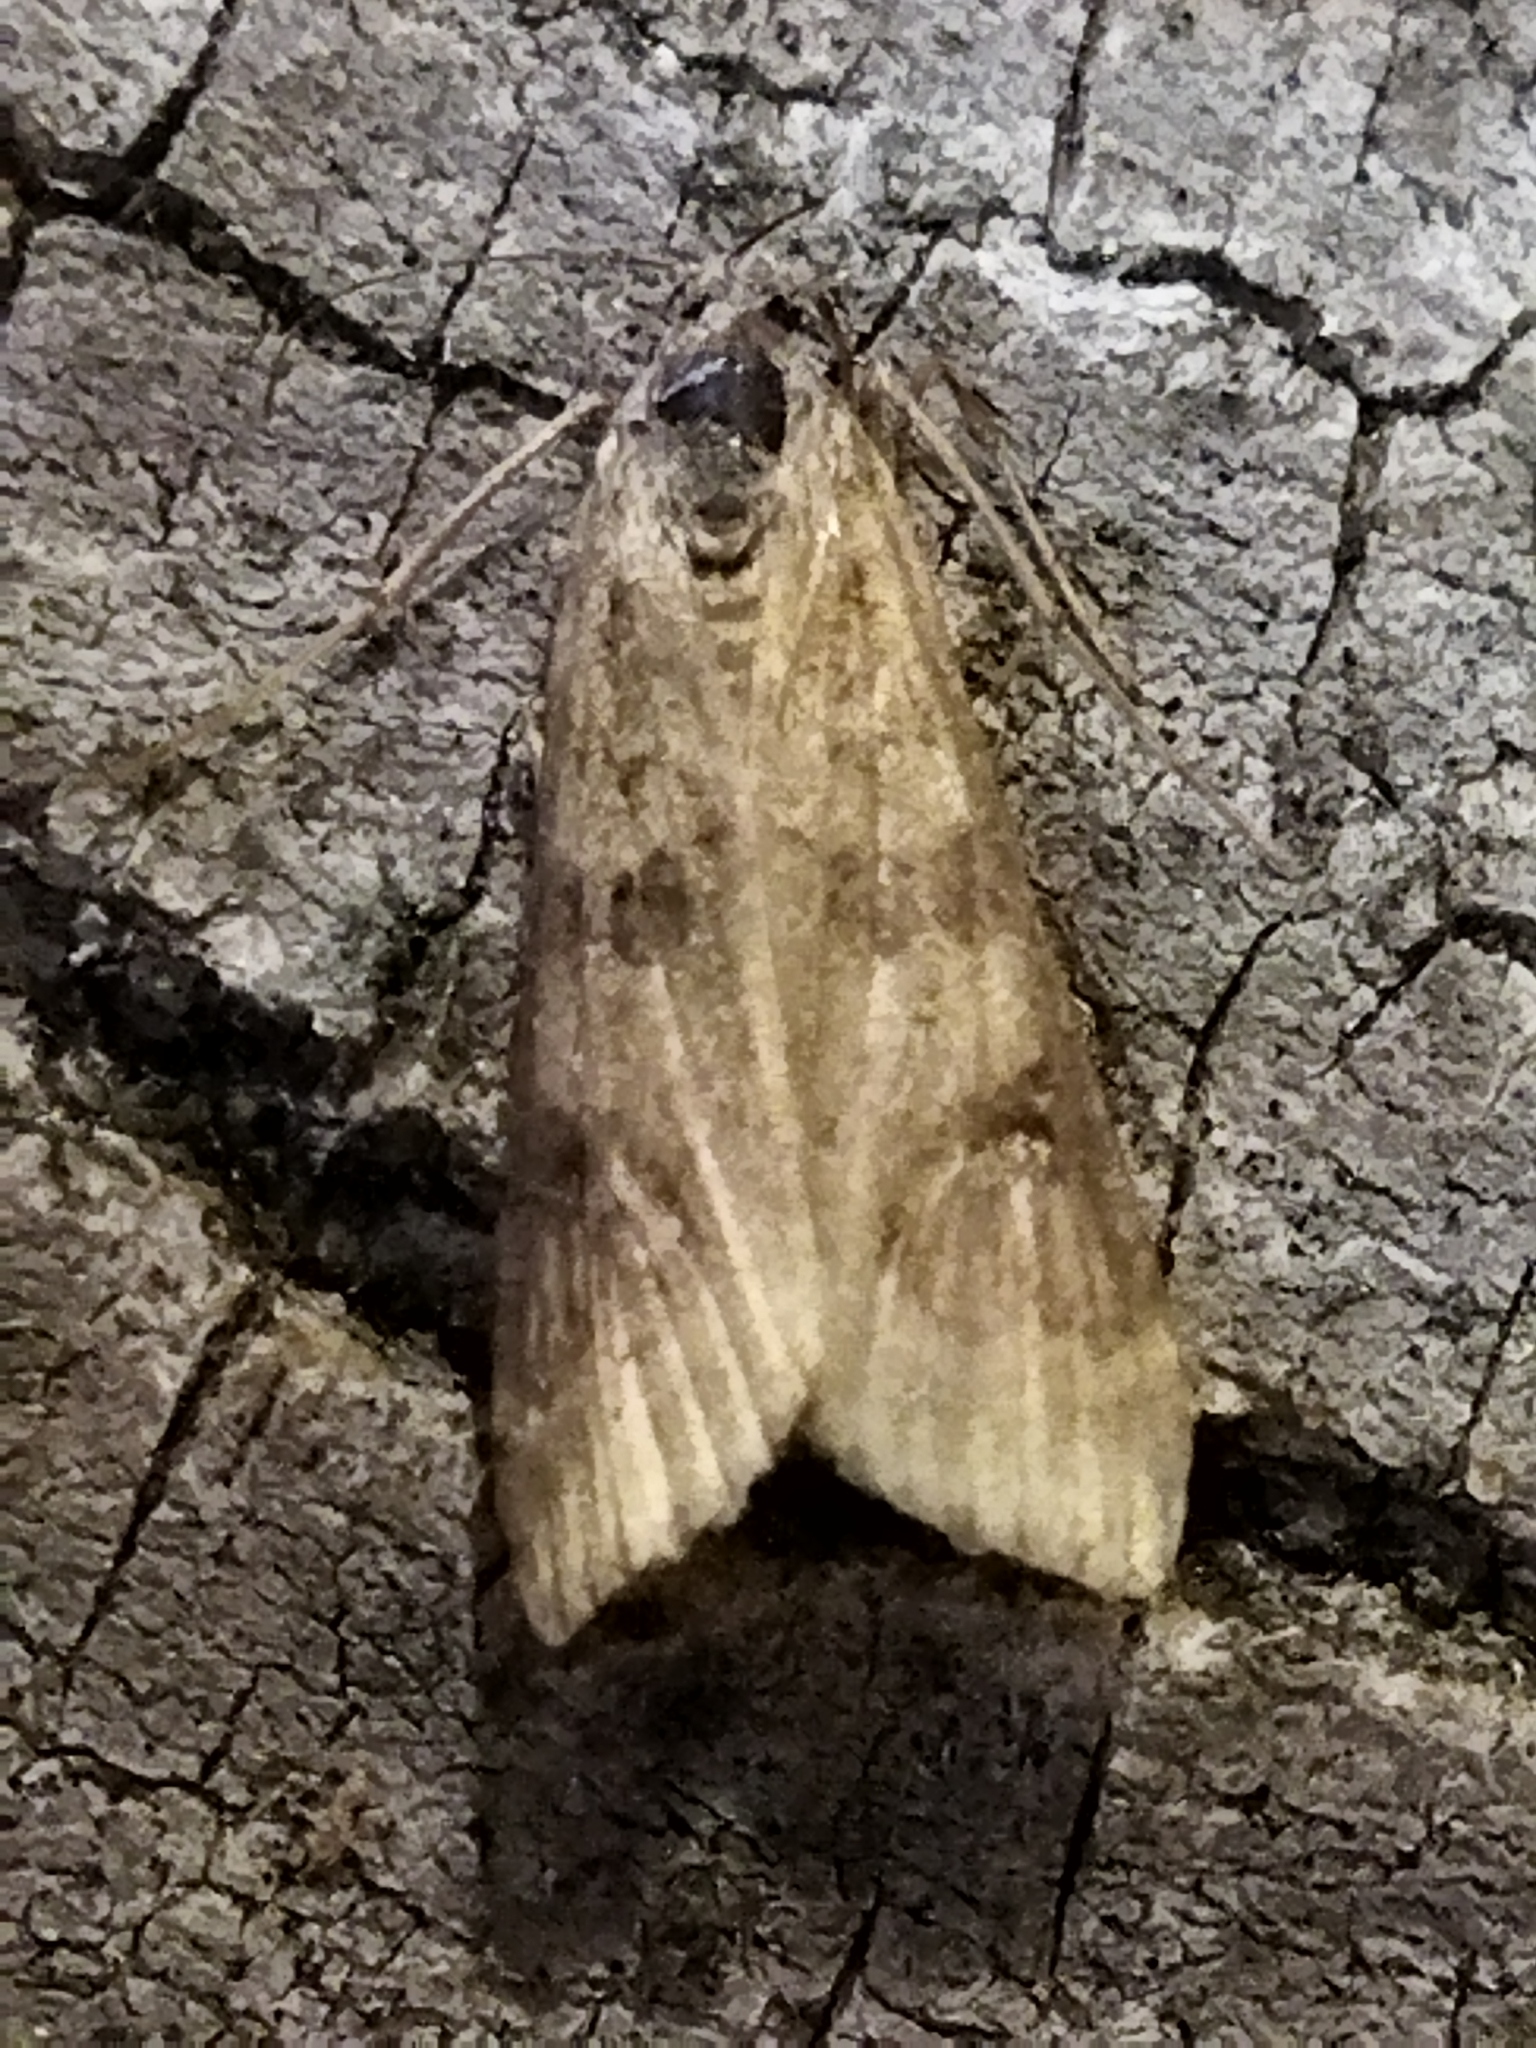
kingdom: Animalia
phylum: Arthropoda
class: Insecta
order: Lepidoptera
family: Crambidae
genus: Nomophila
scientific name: Nomophila noctuella
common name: Rush veneer
